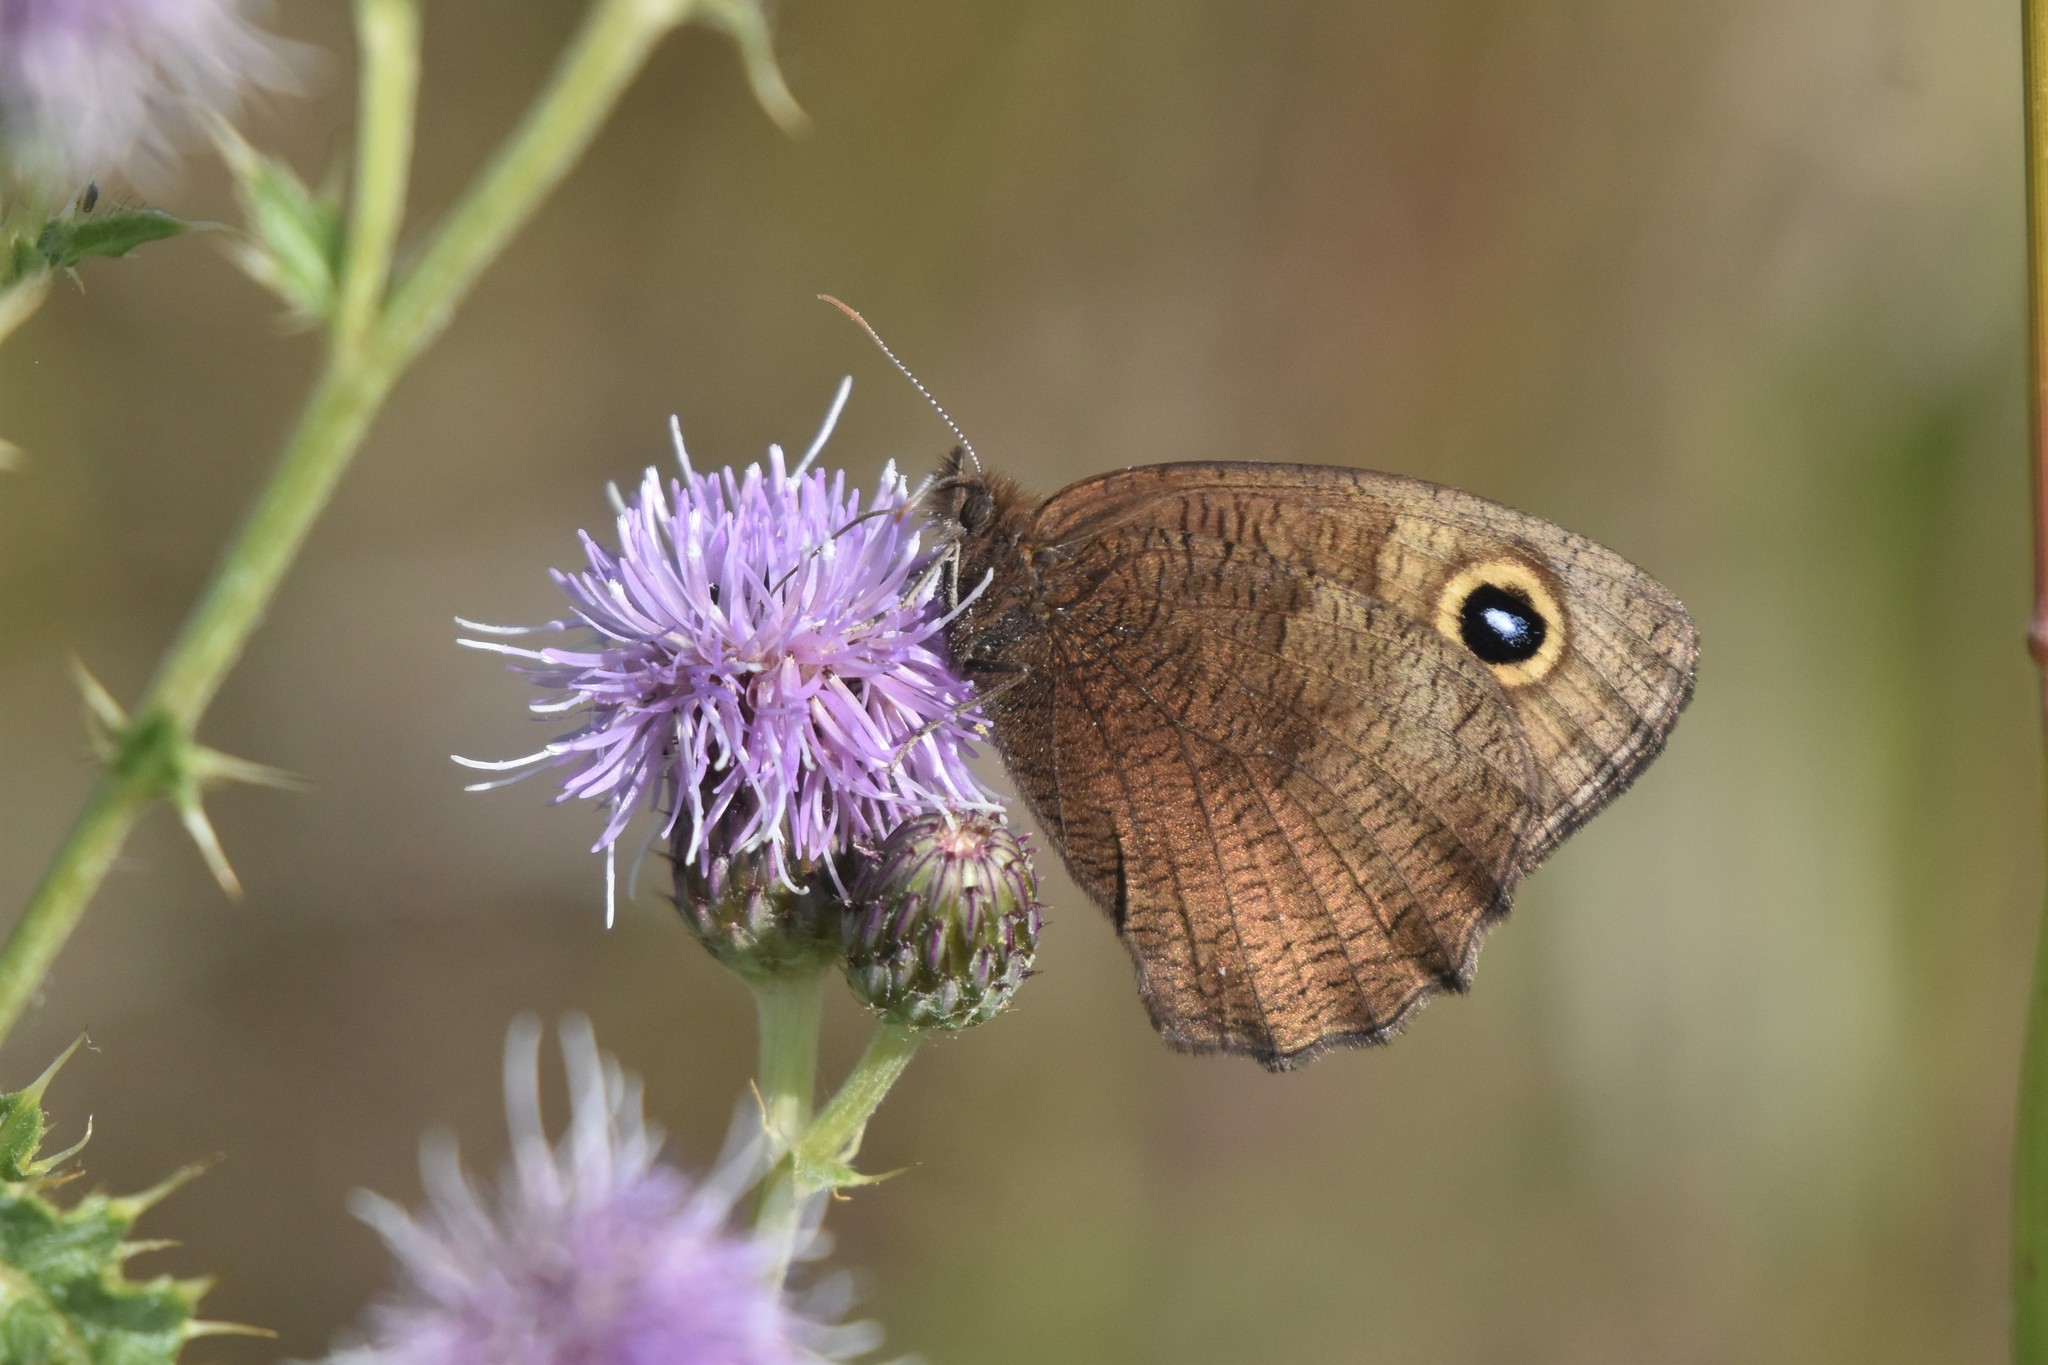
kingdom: Animalia
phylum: Arthropoda
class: Insecta
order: Lepidoptera
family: Nymphalidae
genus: Cercyonis
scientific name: Cercyonis pegala
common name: Common wood-nymph
